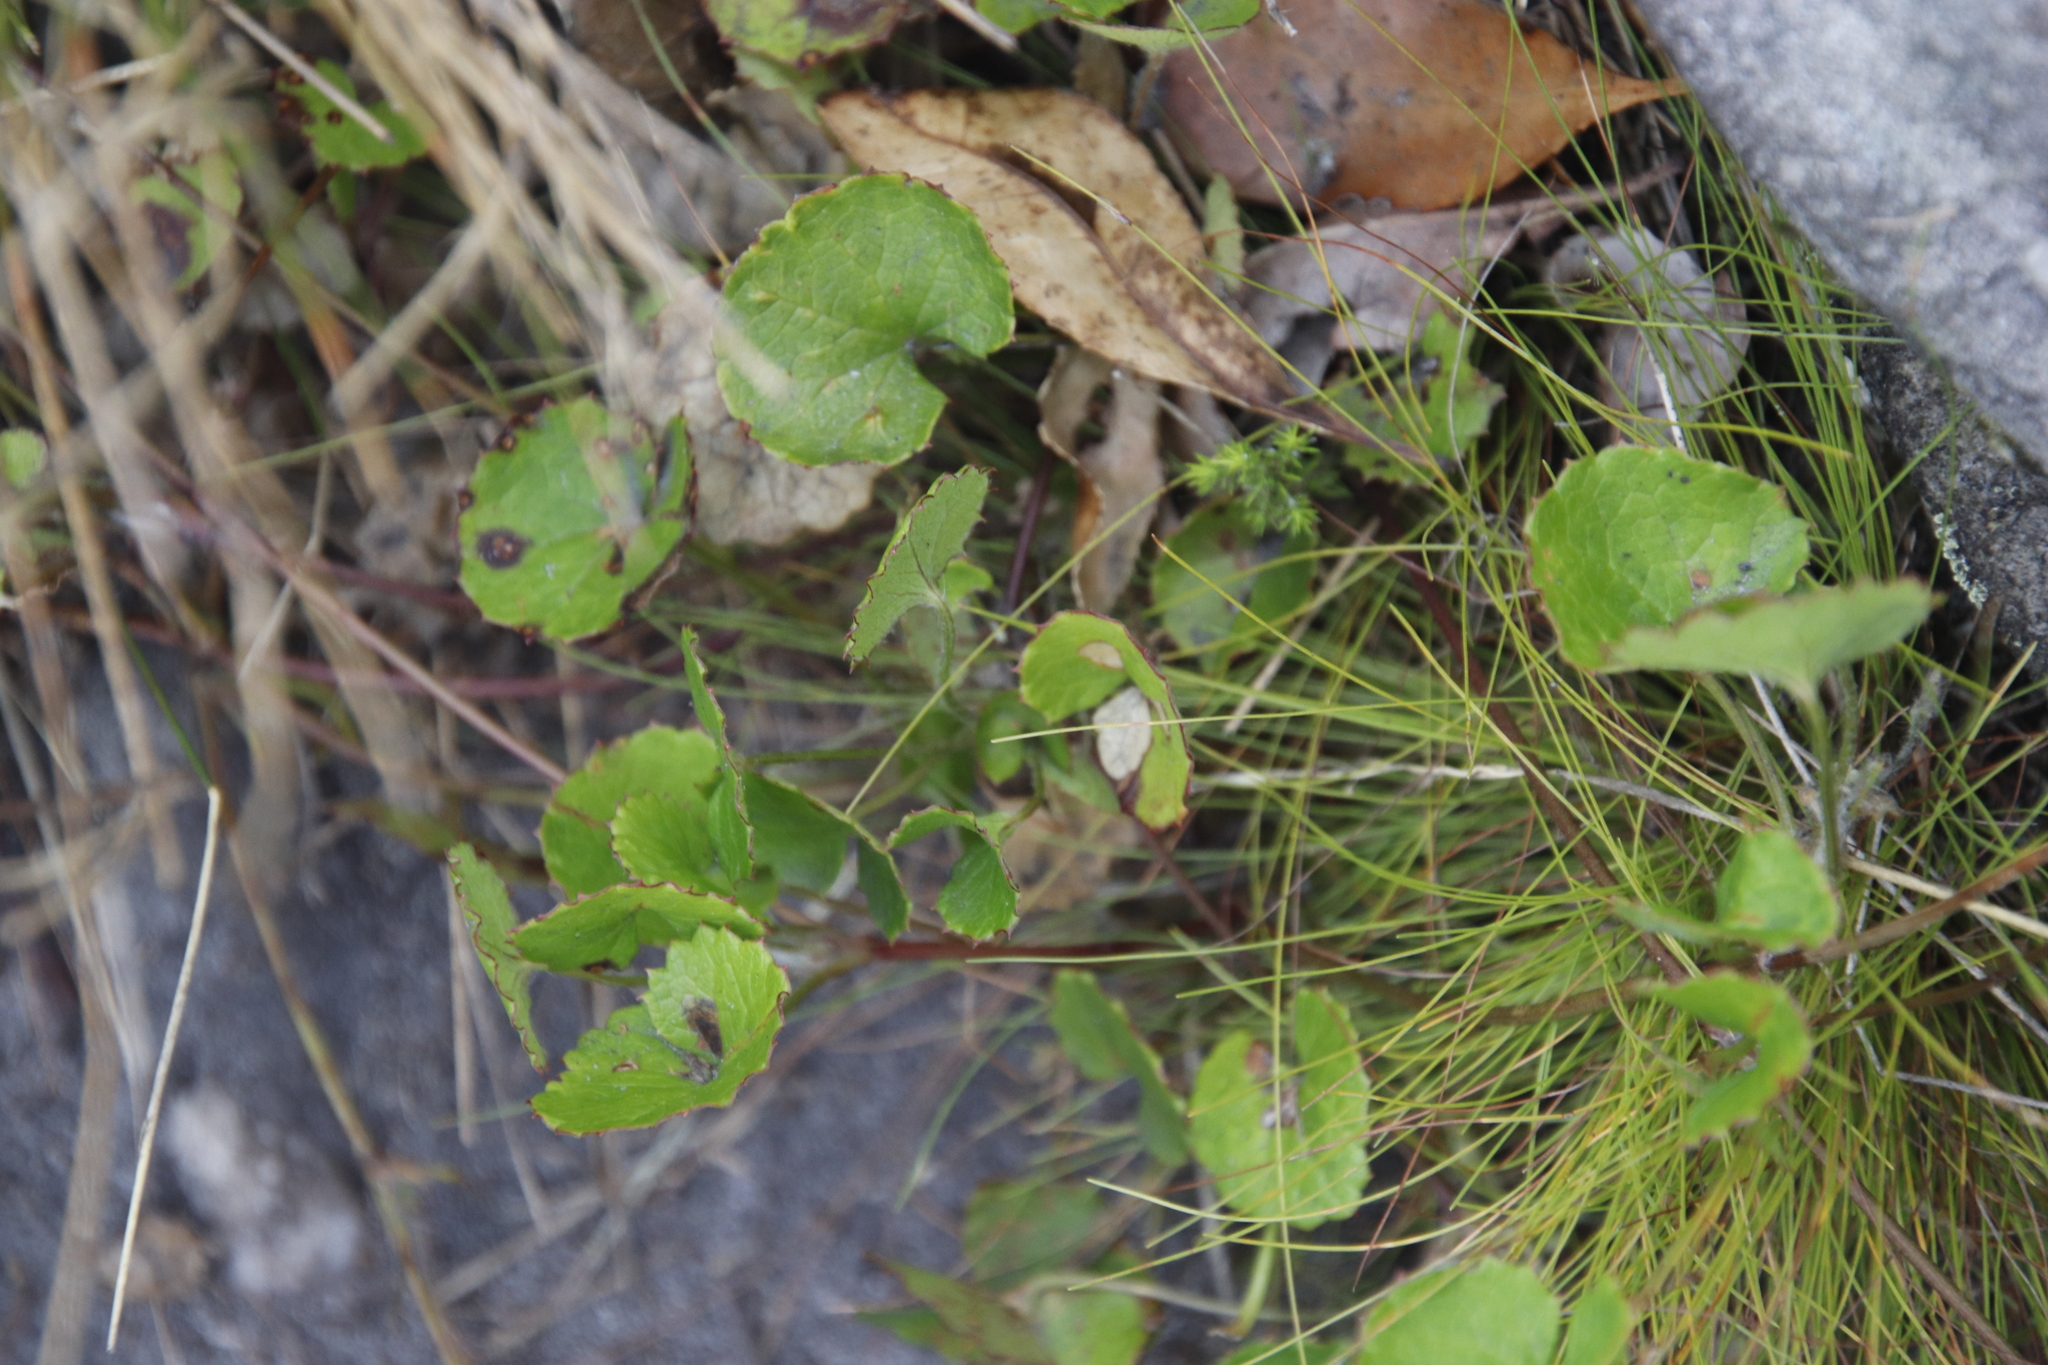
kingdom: Plantae
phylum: Tracheophyta
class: Magnoliopsida
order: Apiales
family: Apiaceae
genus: Centella
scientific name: Centella eriantha
